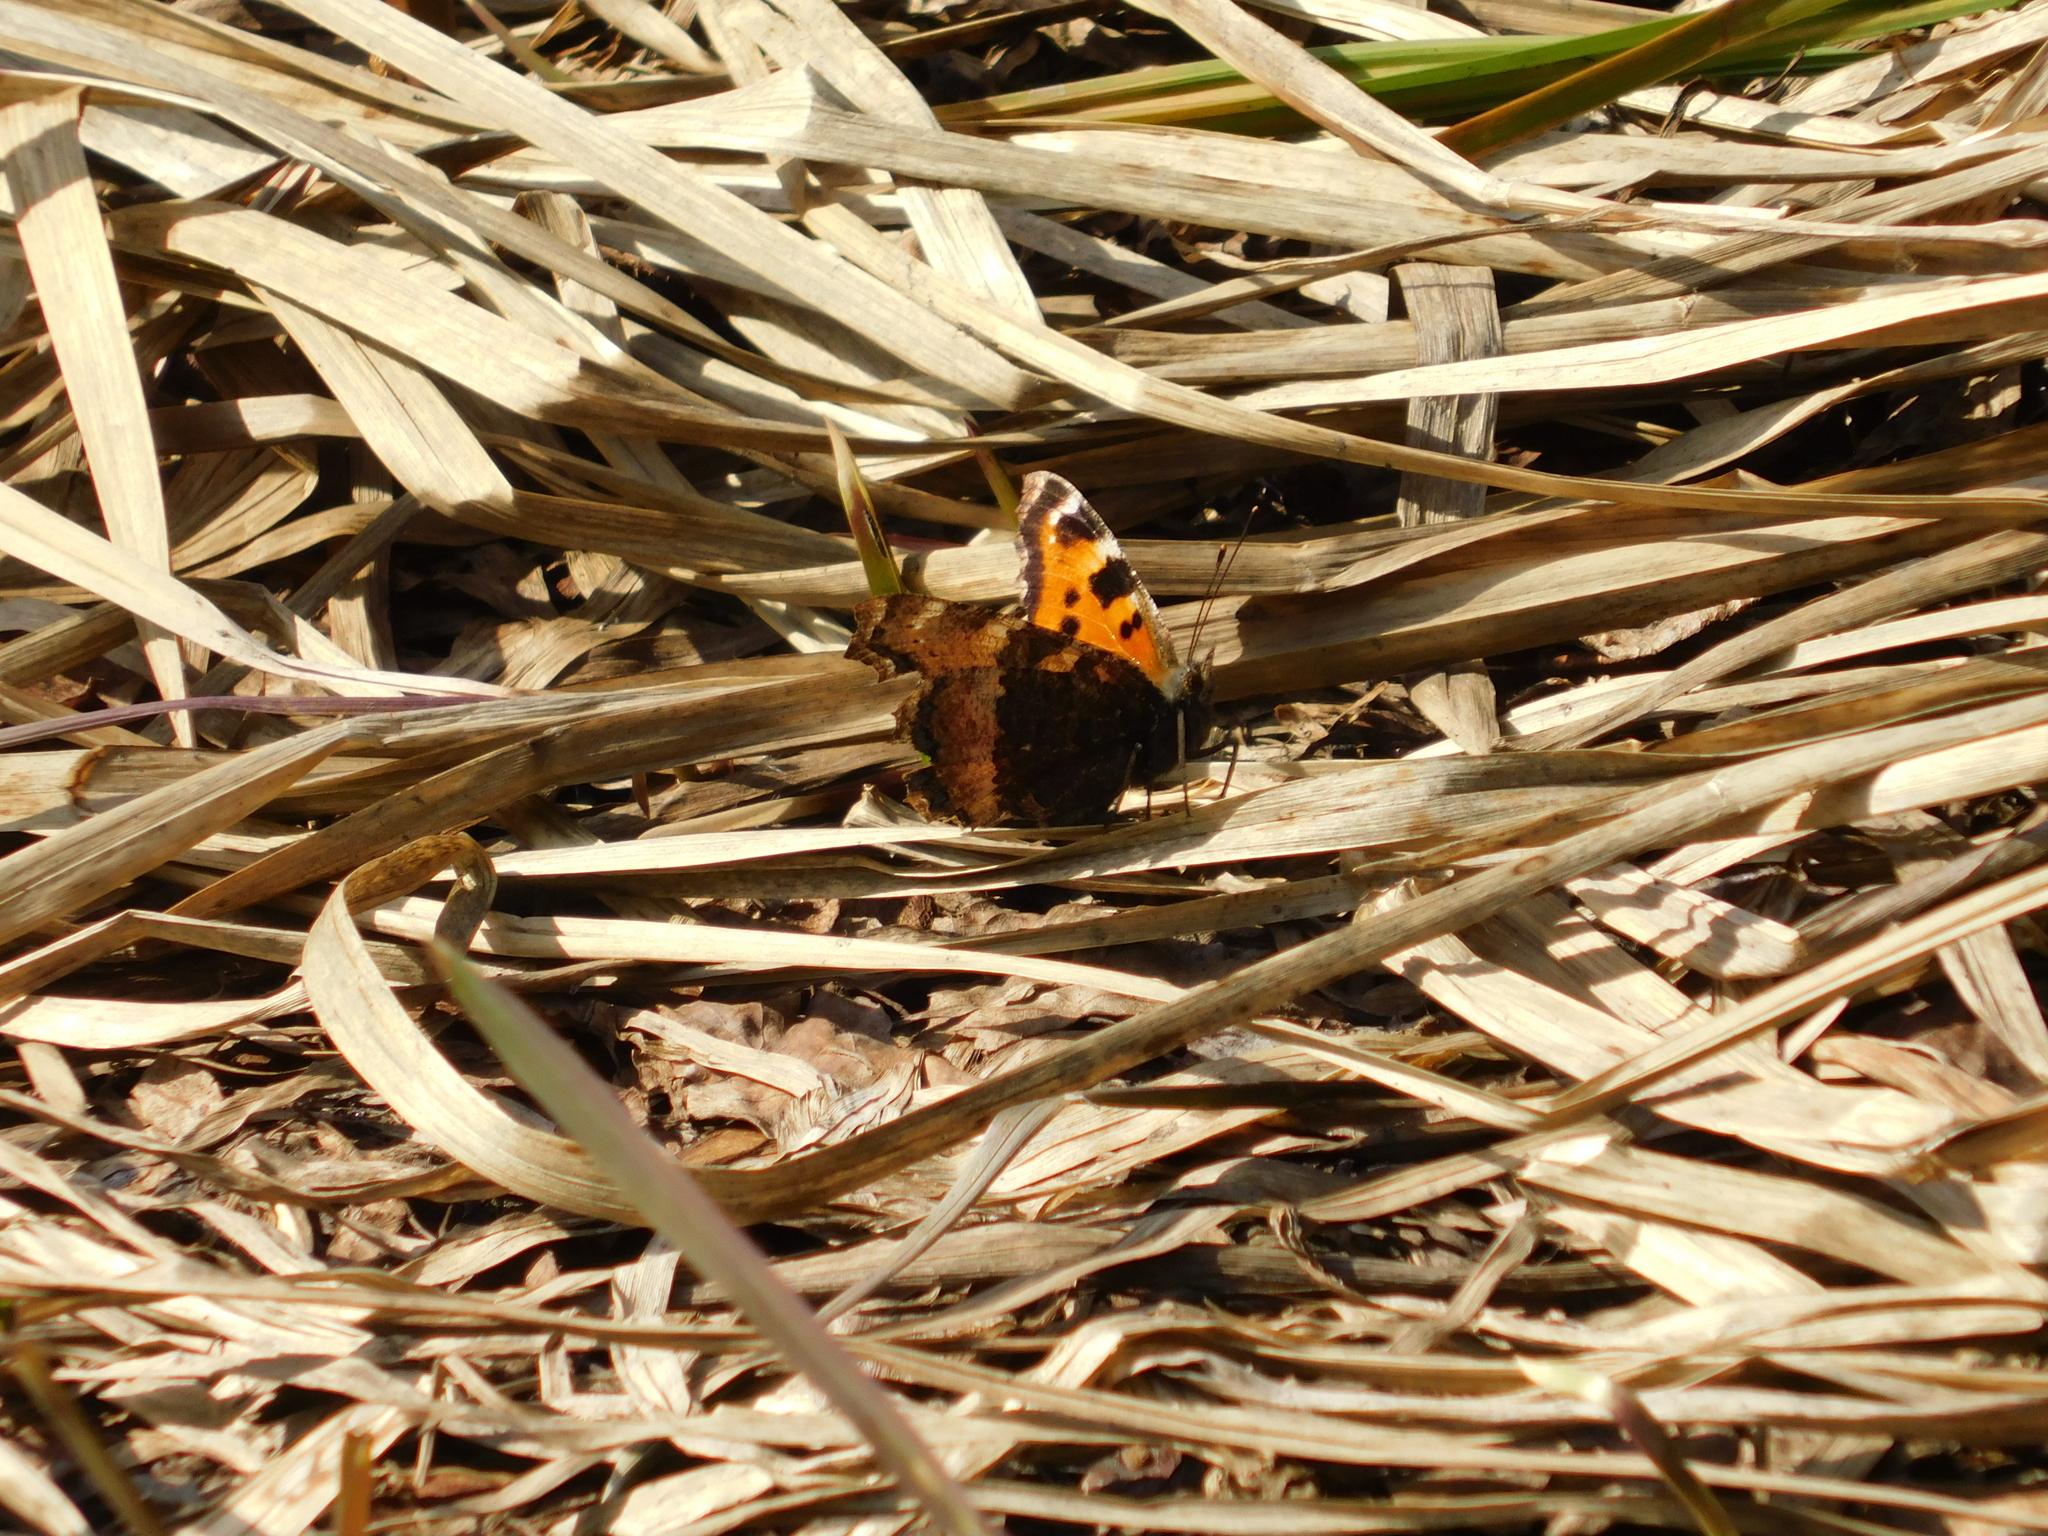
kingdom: Animalia
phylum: Arthropoda
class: Insecta
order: Lepidoptera
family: Nymphalidae
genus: Nymphalis
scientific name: Nymphalis xanthomelas
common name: Scarce tortoiseshell
